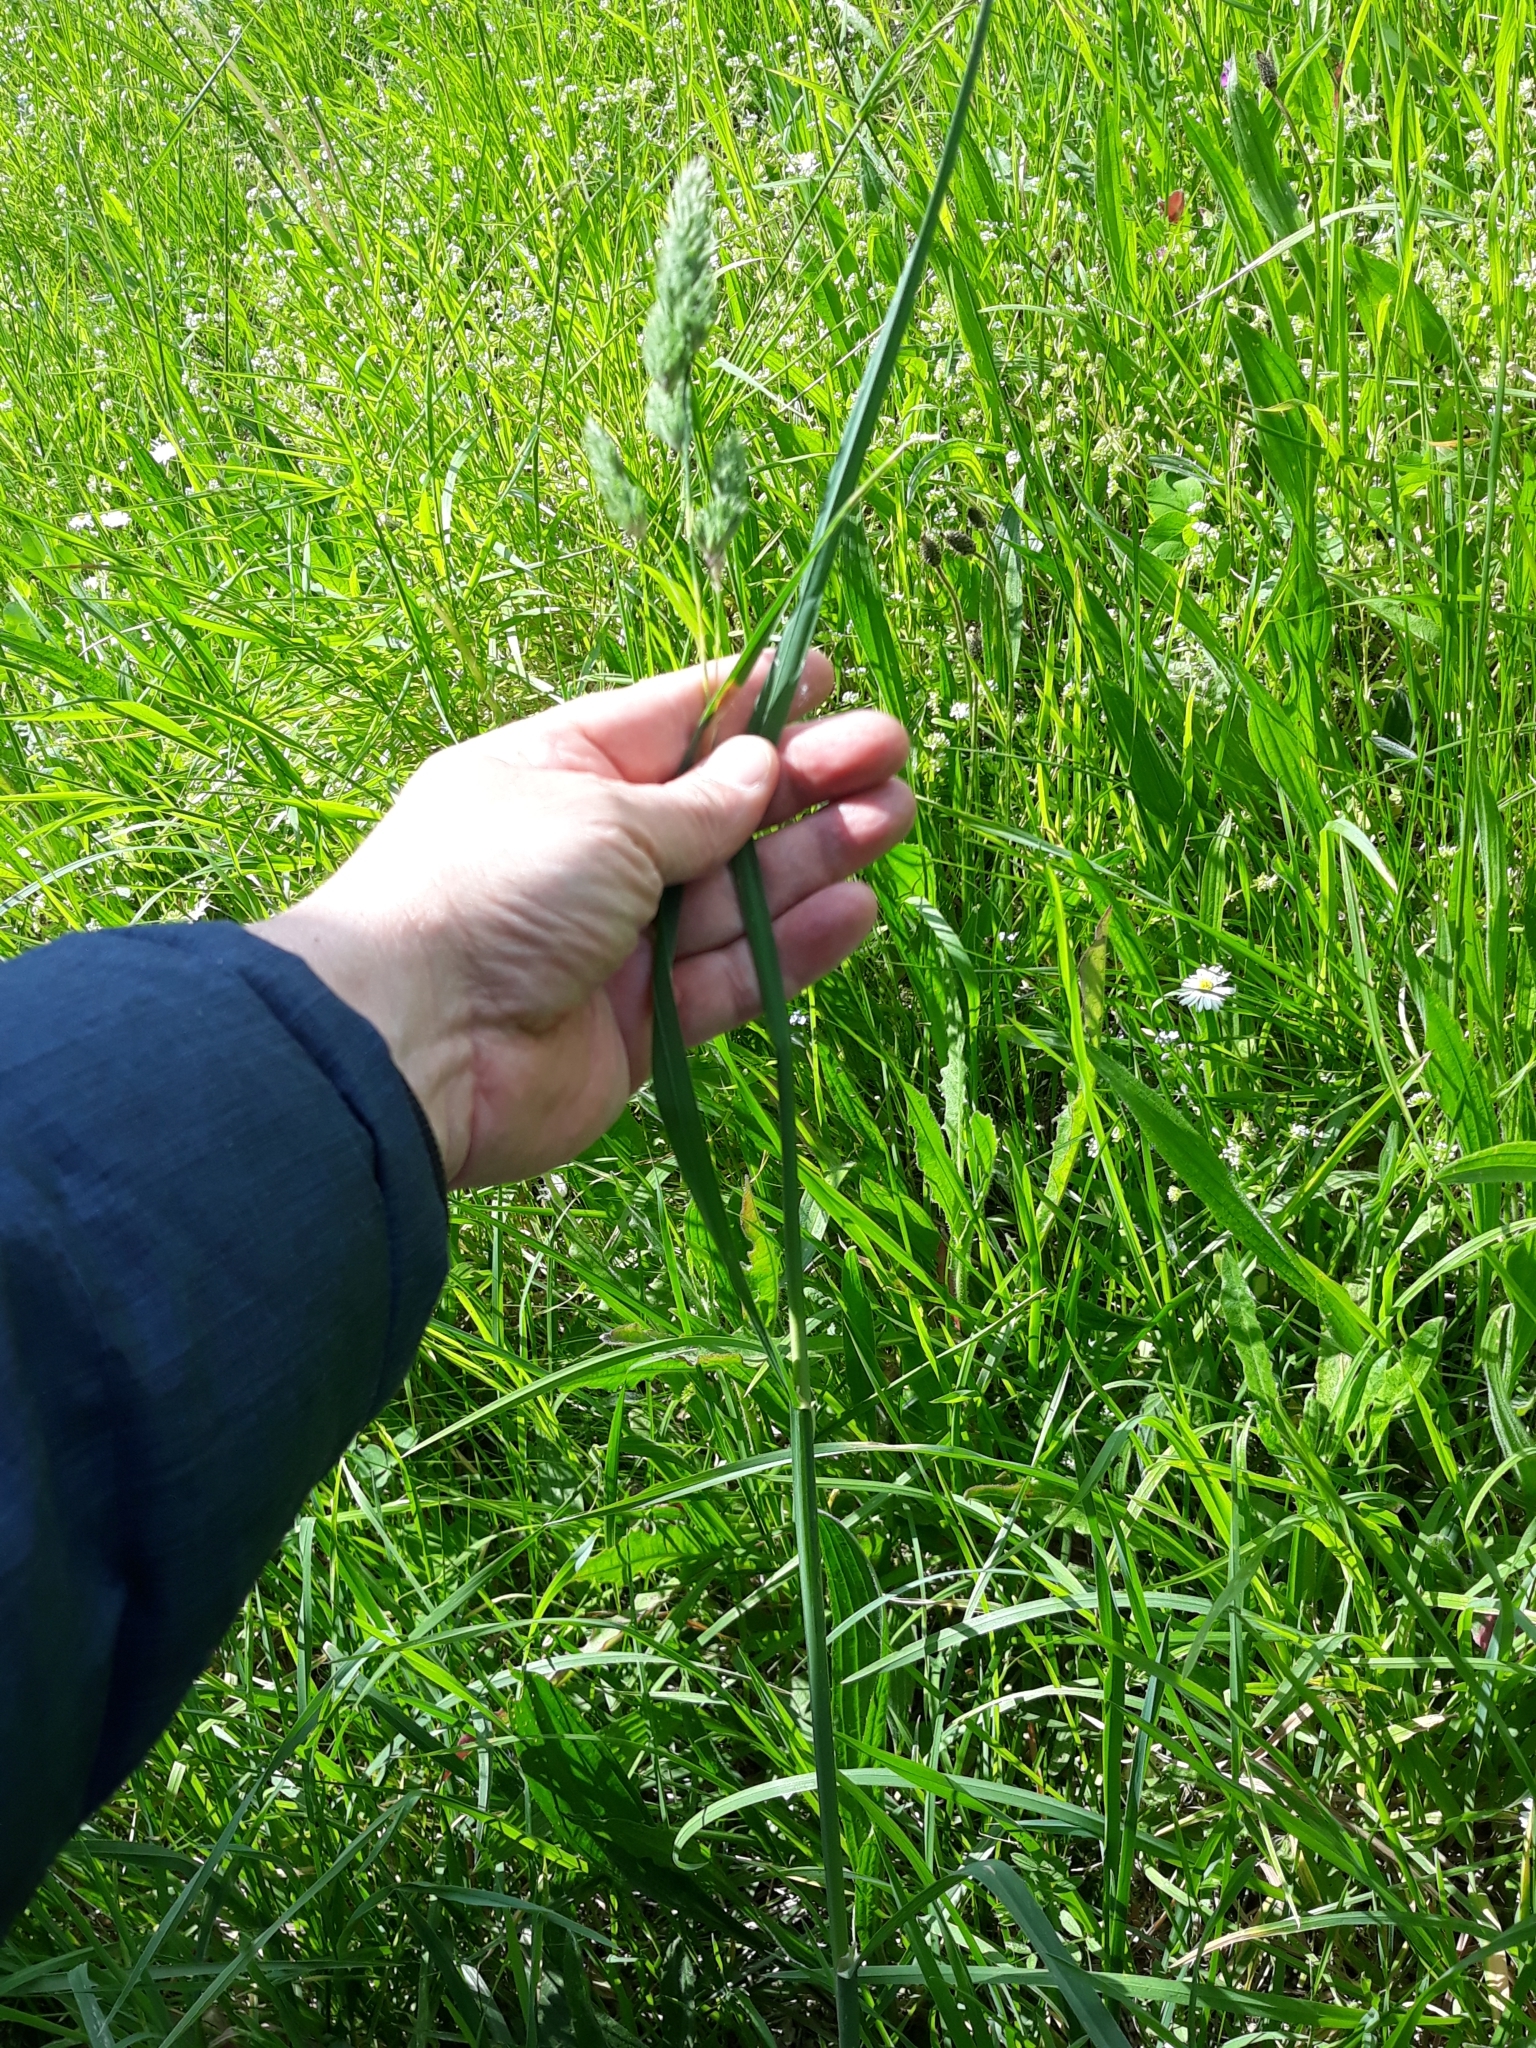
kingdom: Plantae
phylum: Tracheophyta
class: Liliopsida
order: Poales
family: Poaceae
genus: Dactylis
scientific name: Dactylis glomerata
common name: Orchardgrass
